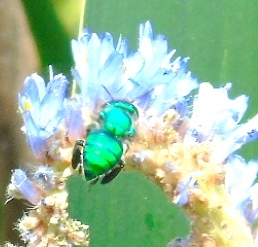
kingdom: Animalia
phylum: Arthropoda
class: Insecta
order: Hymenoptera
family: Apidae
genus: Euglossa
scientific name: Euglossa
